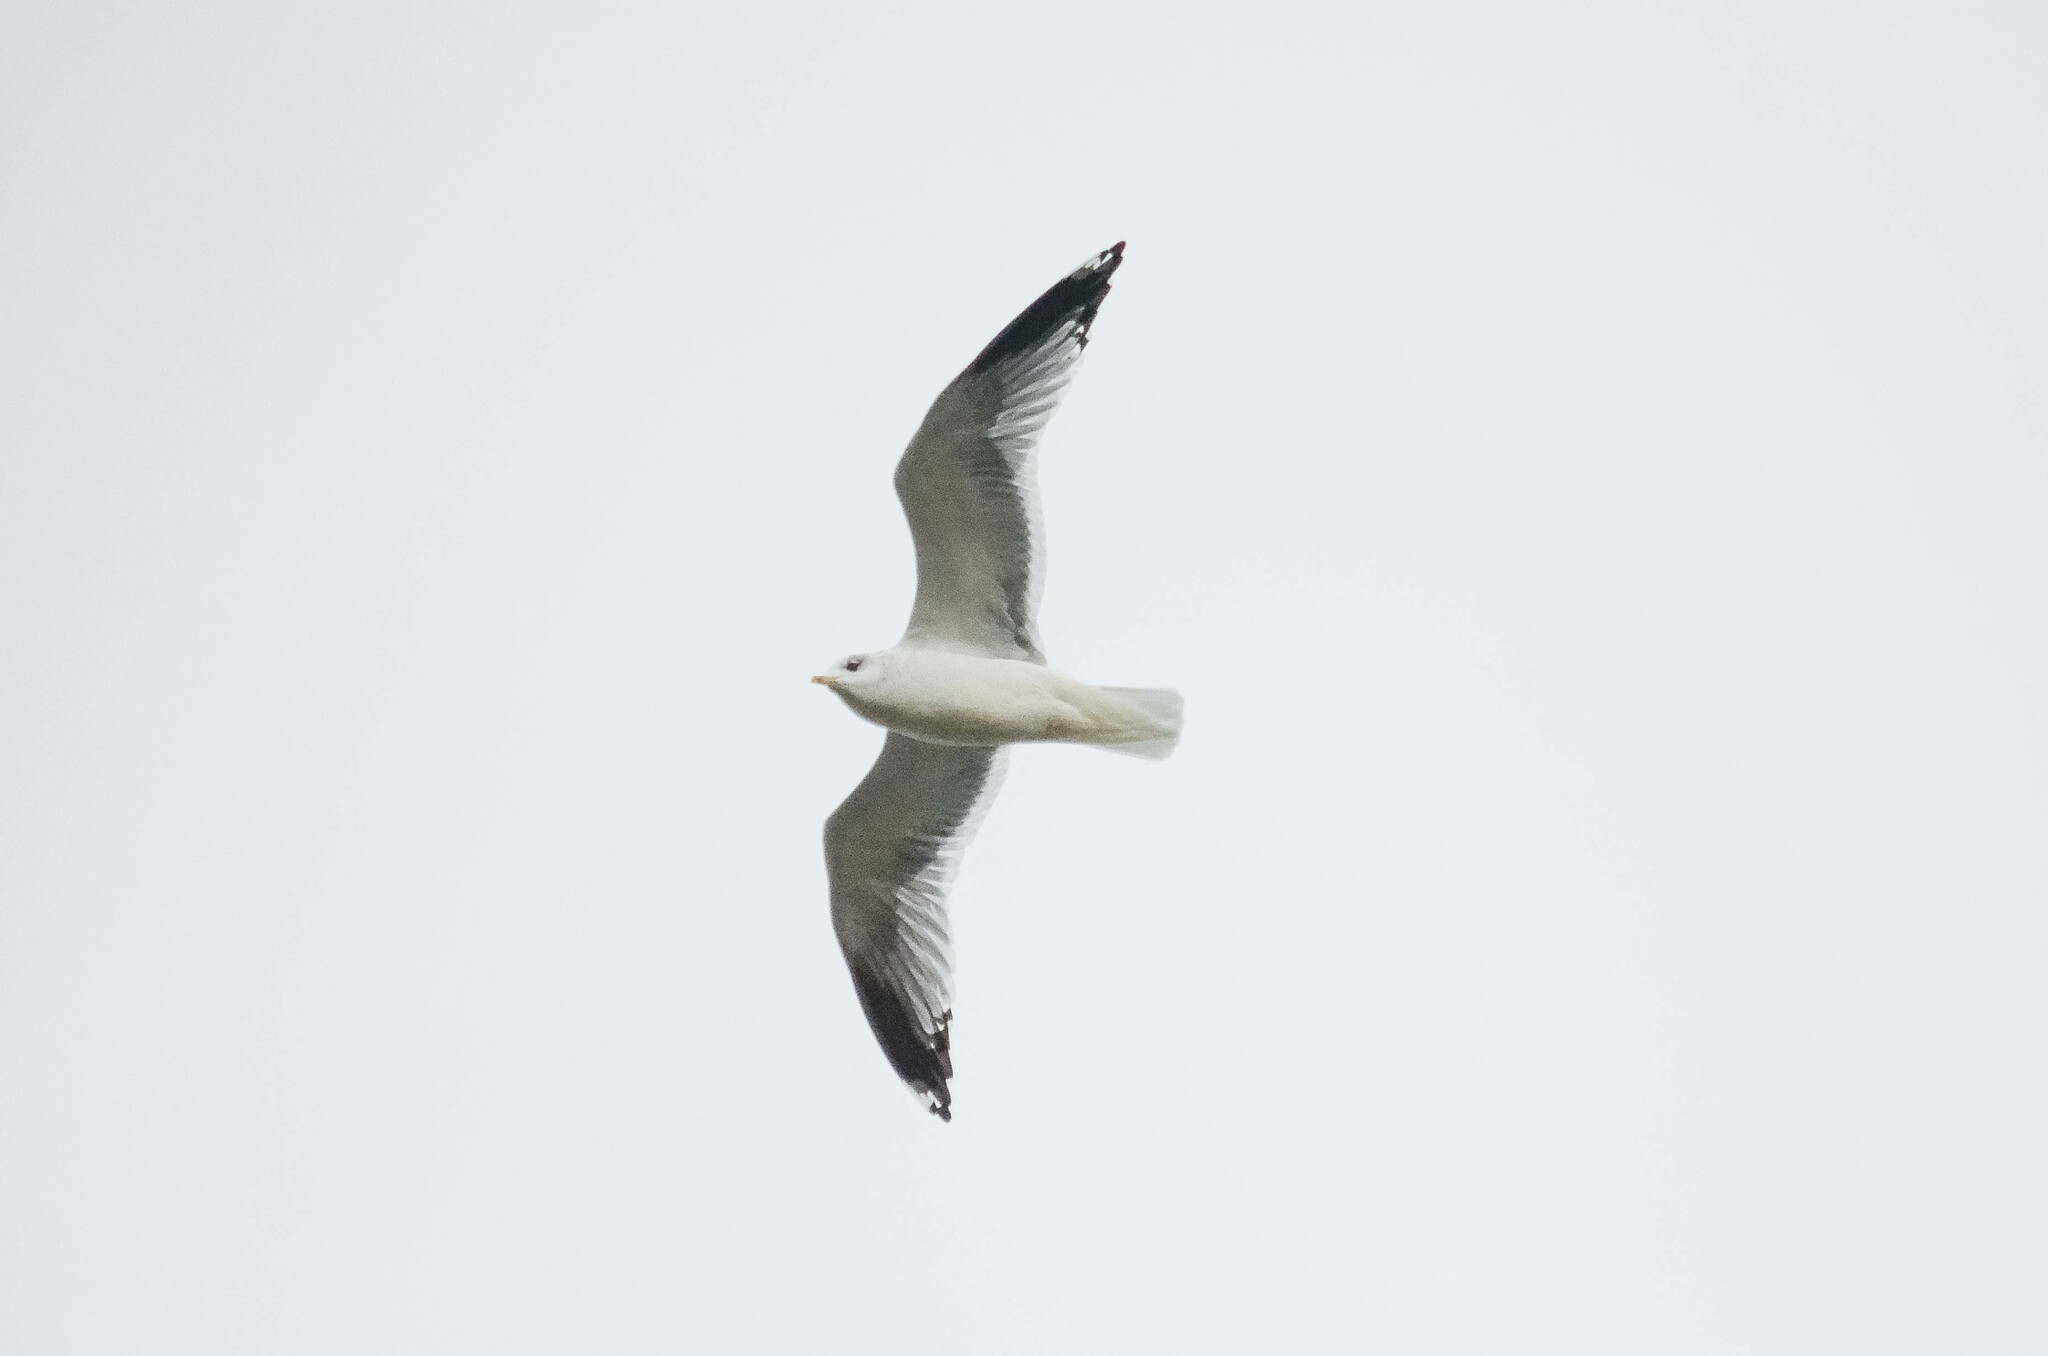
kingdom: Animalia
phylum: Chordata
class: Aves
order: Charadriiformes
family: Laridae
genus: Larus
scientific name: Larus canus
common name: Mew gull
